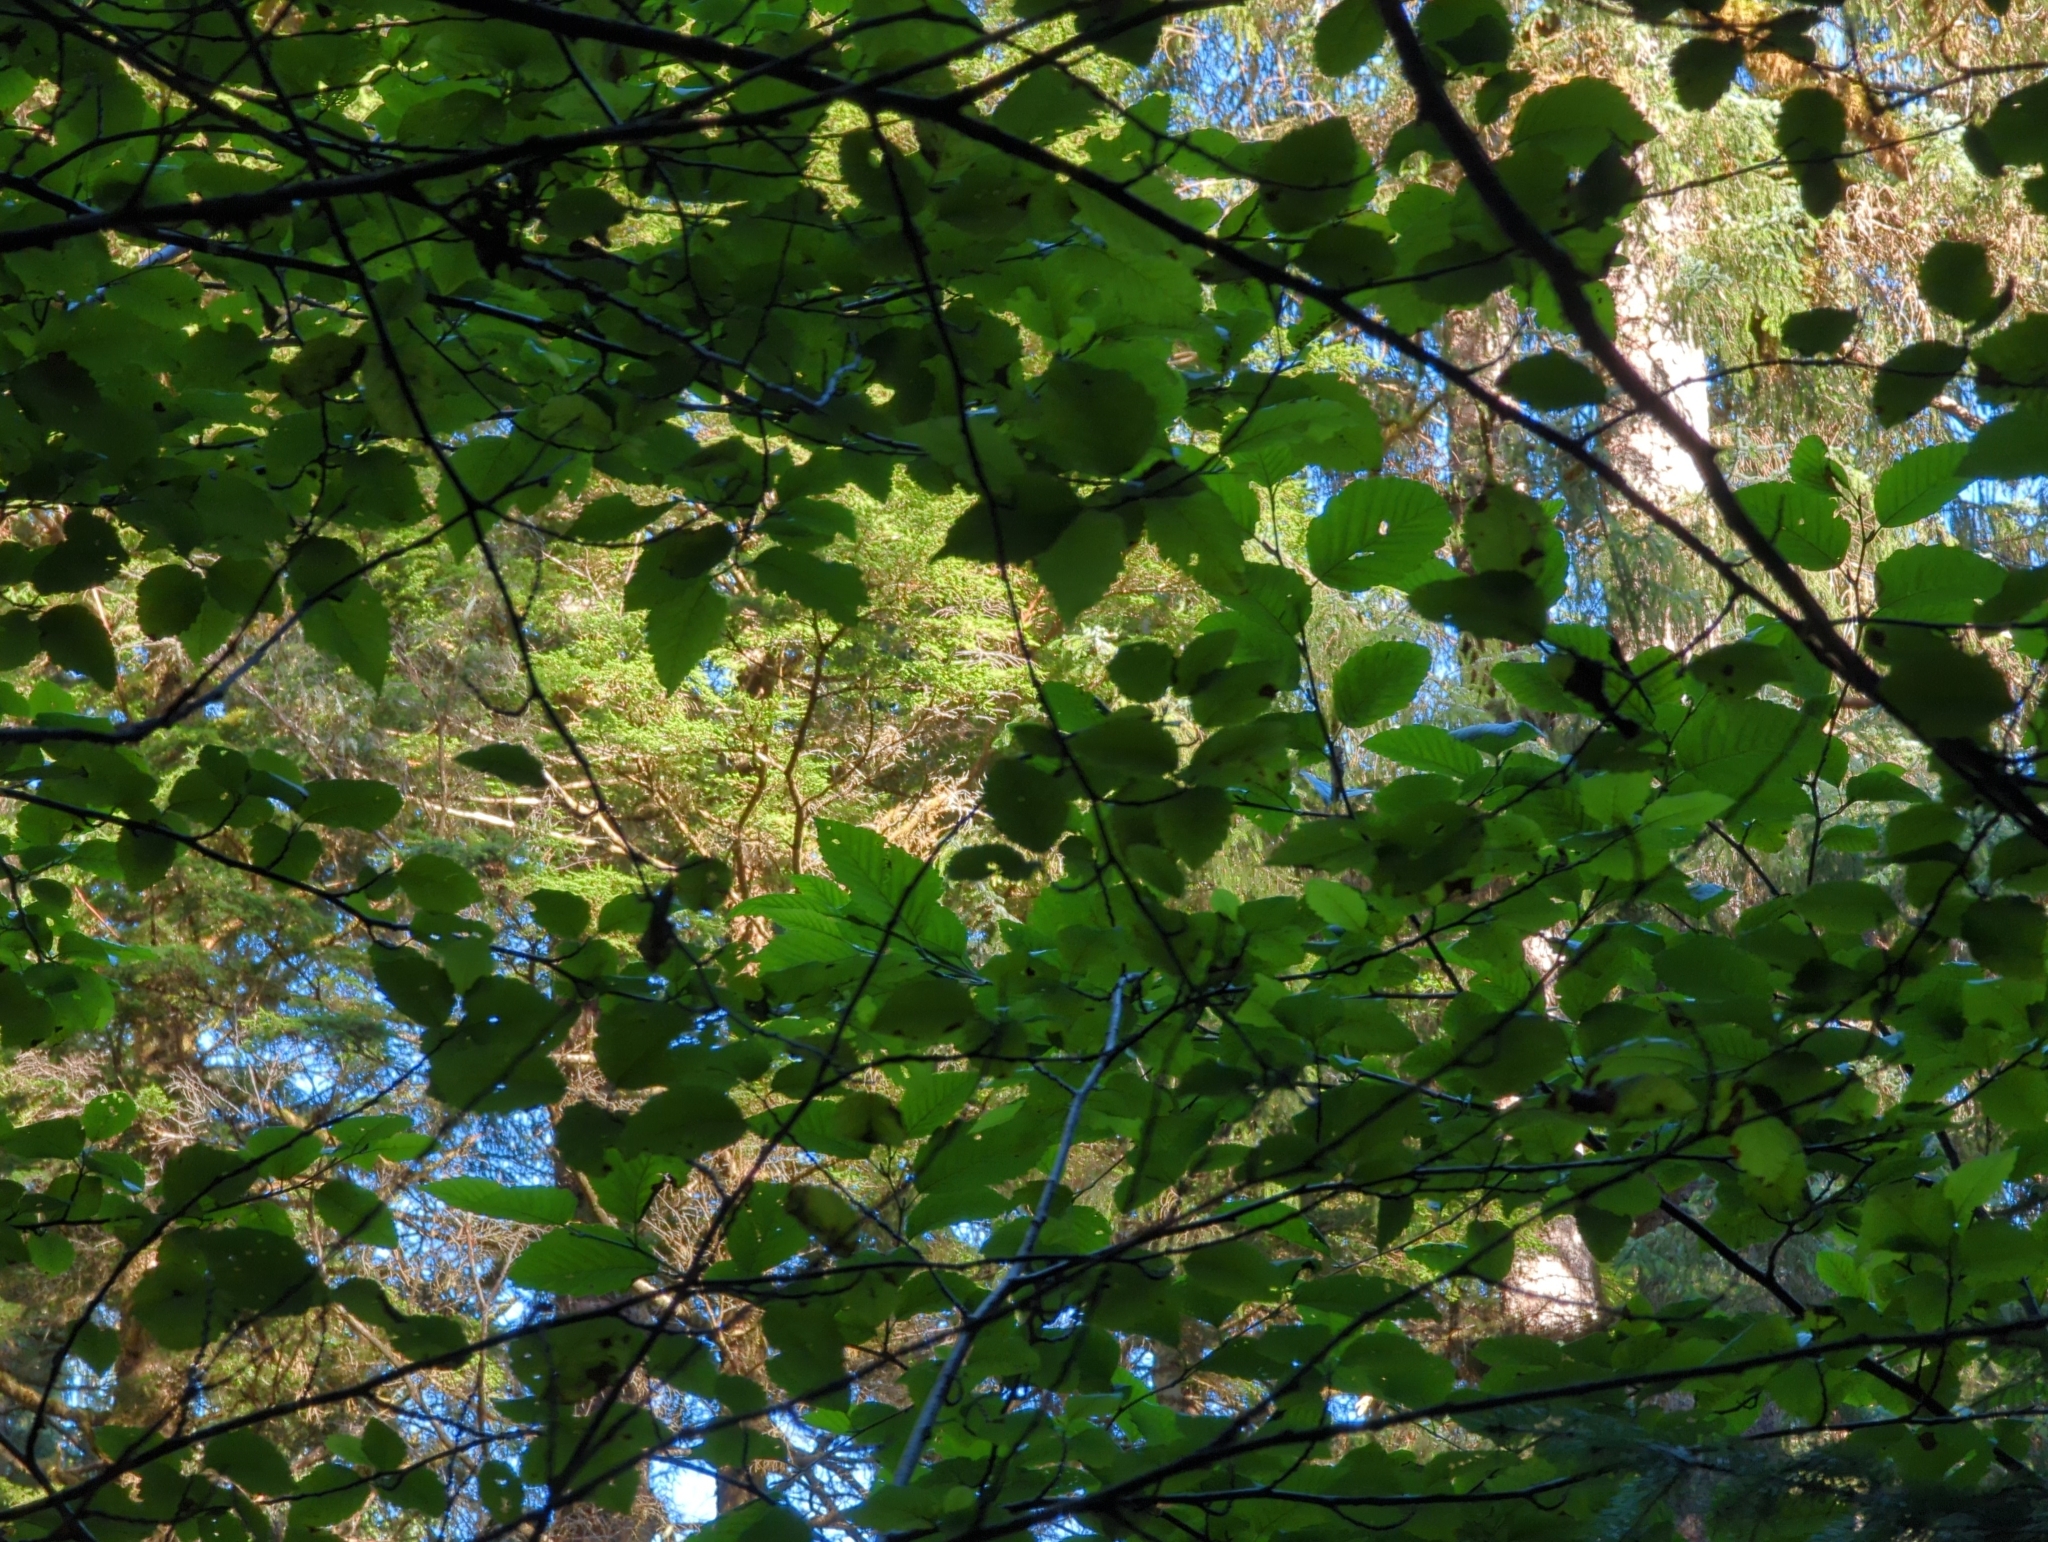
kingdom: Plantae
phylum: Tracheophyta
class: Magnoliopsida
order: Fagales
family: Betulaceae
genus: Alnus
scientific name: Alnus rubra
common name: Red alder
